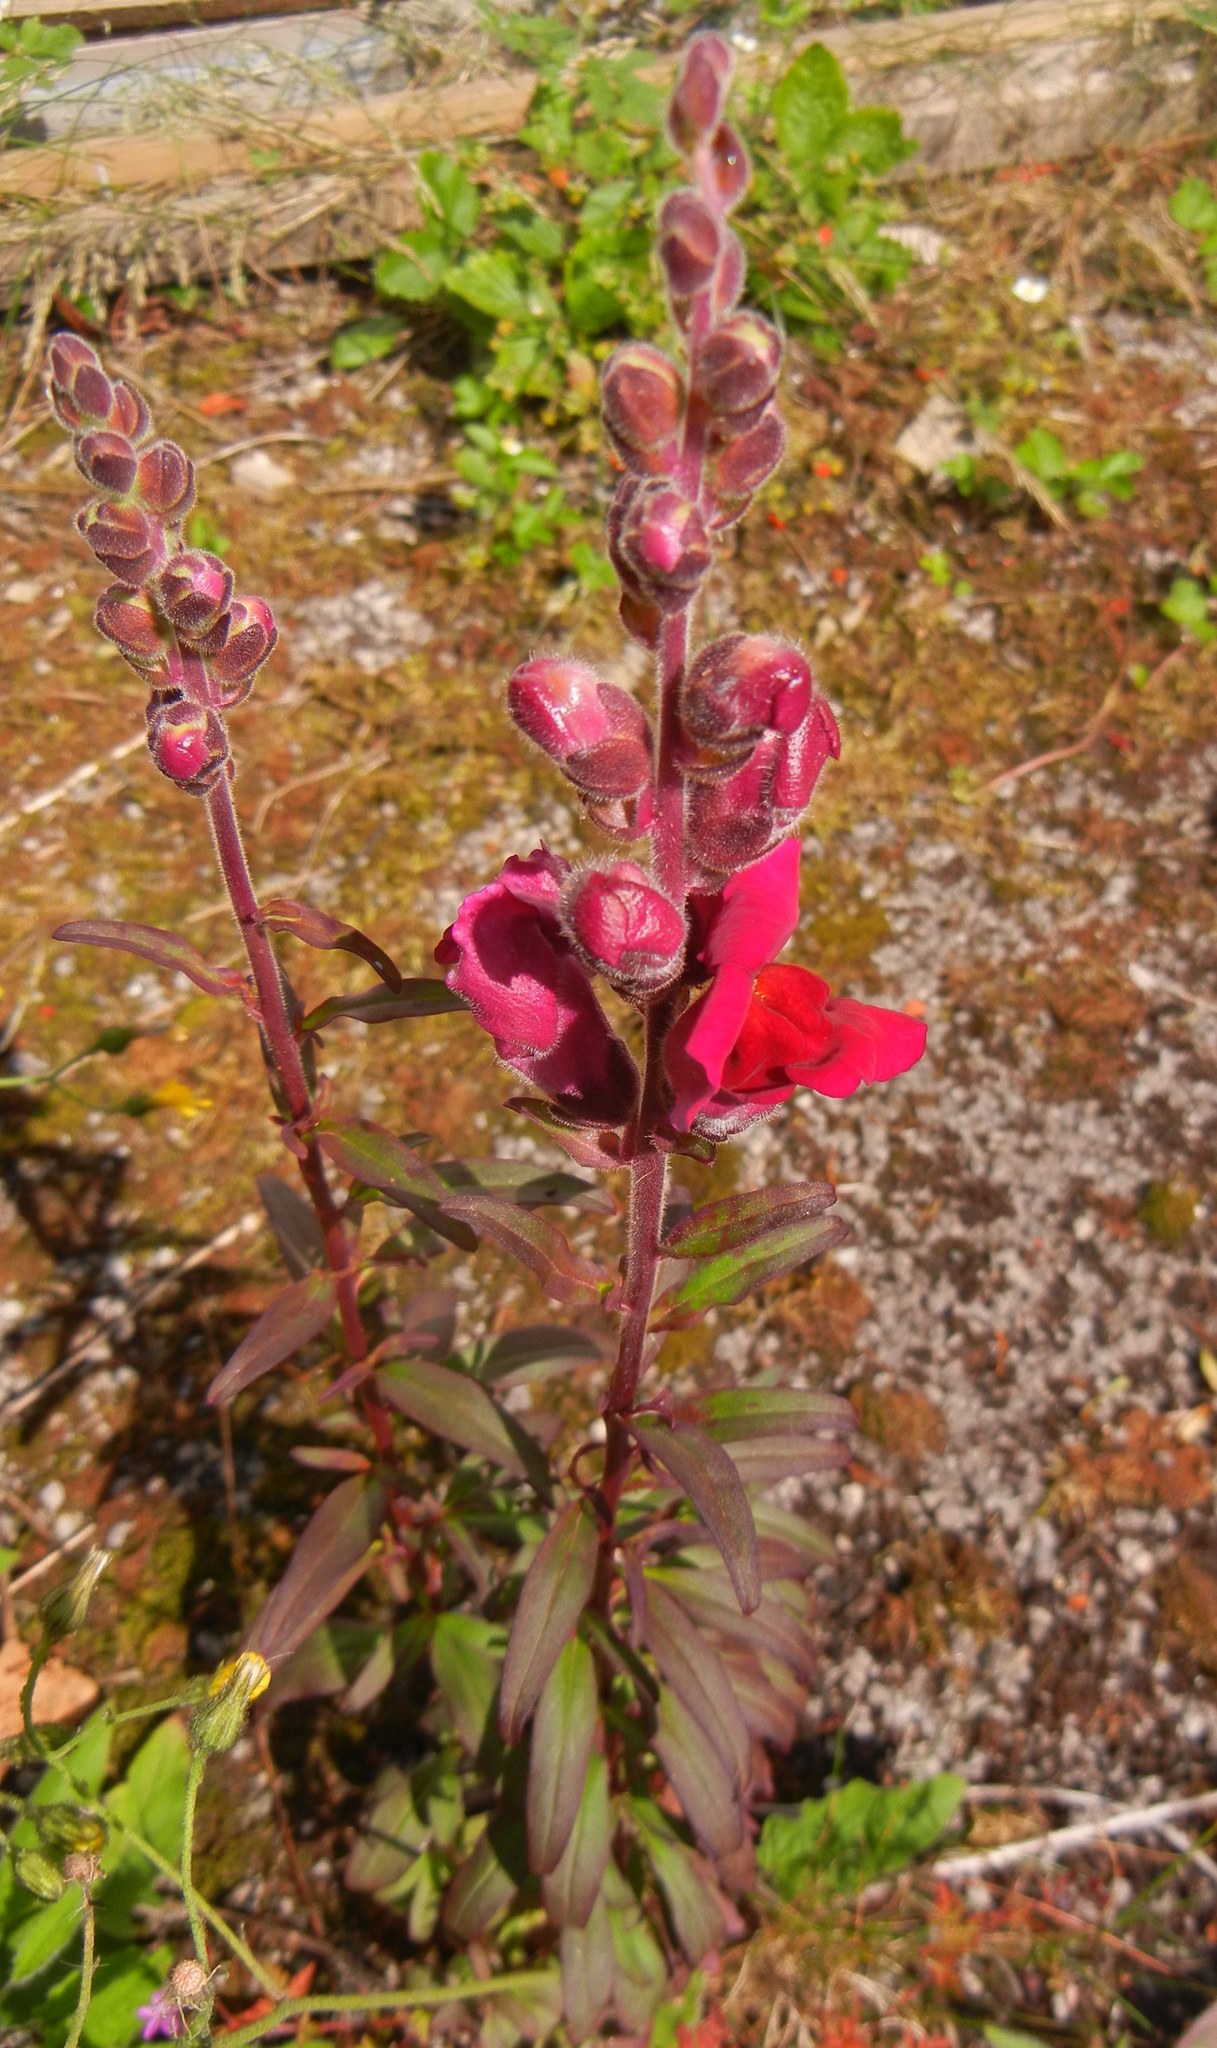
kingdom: Plantae
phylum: Tracheophyta
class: Magnoliopsida
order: Lamiales
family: Plantaginaceae
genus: Antirrhinum
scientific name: Antirrhinum majus
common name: Snapdragon
